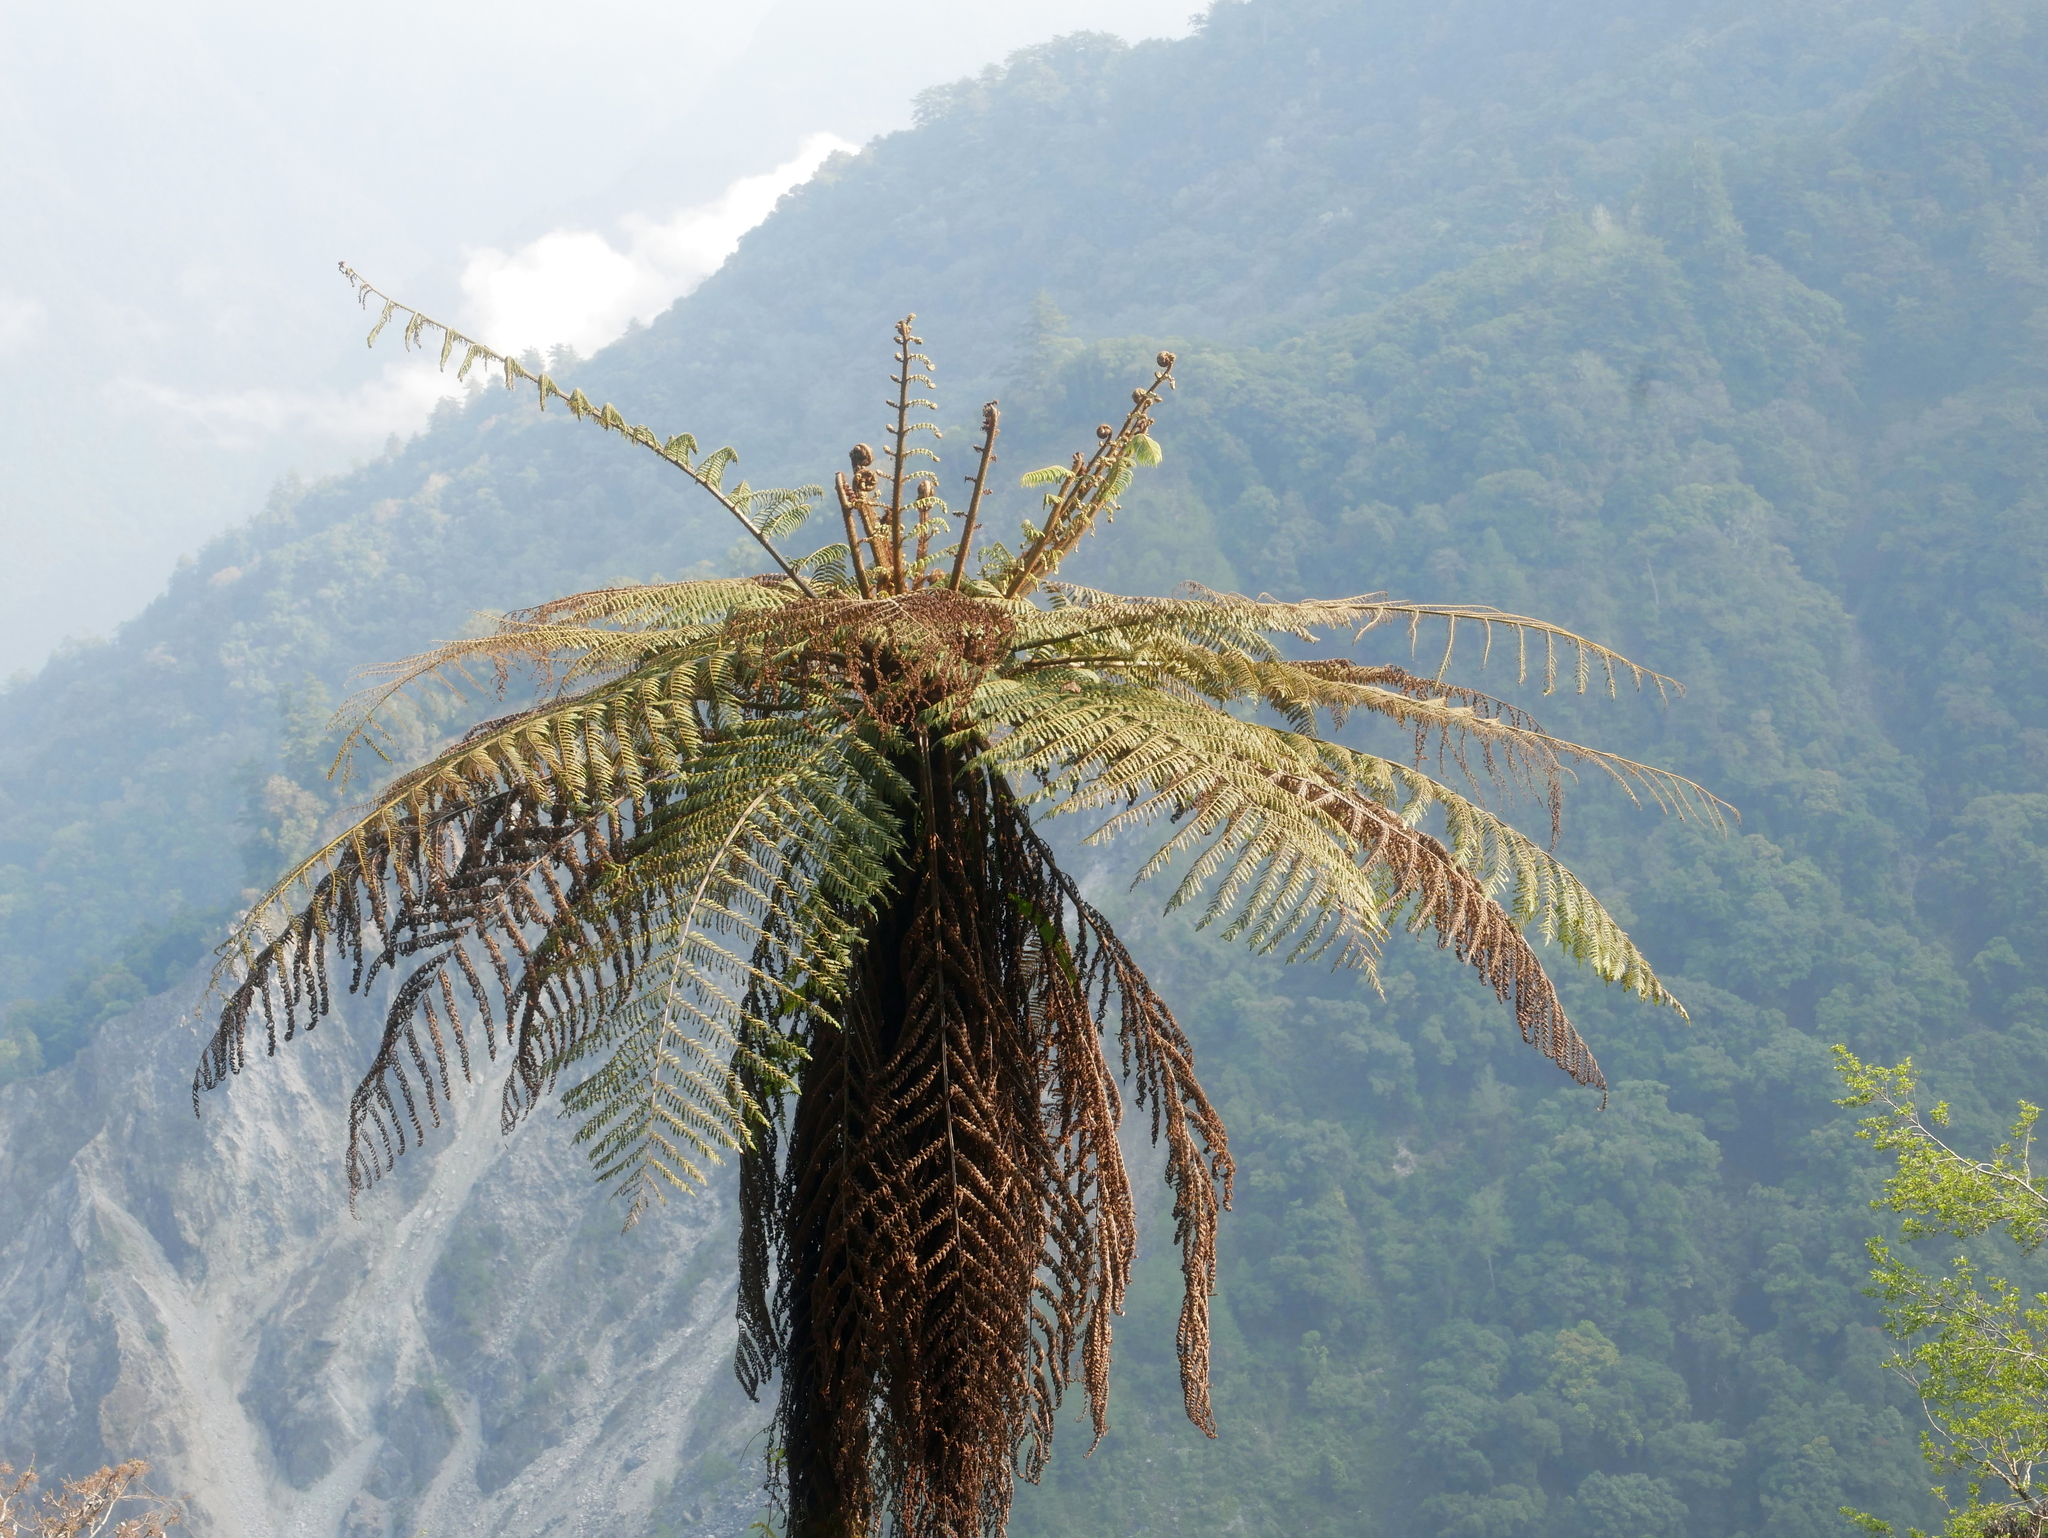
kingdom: Plantae
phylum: Tracheophyta
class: Polypodiopsida
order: Cyatheales
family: Cyatheaceae
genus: Alsophila
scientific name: Alsophila spinulosa
